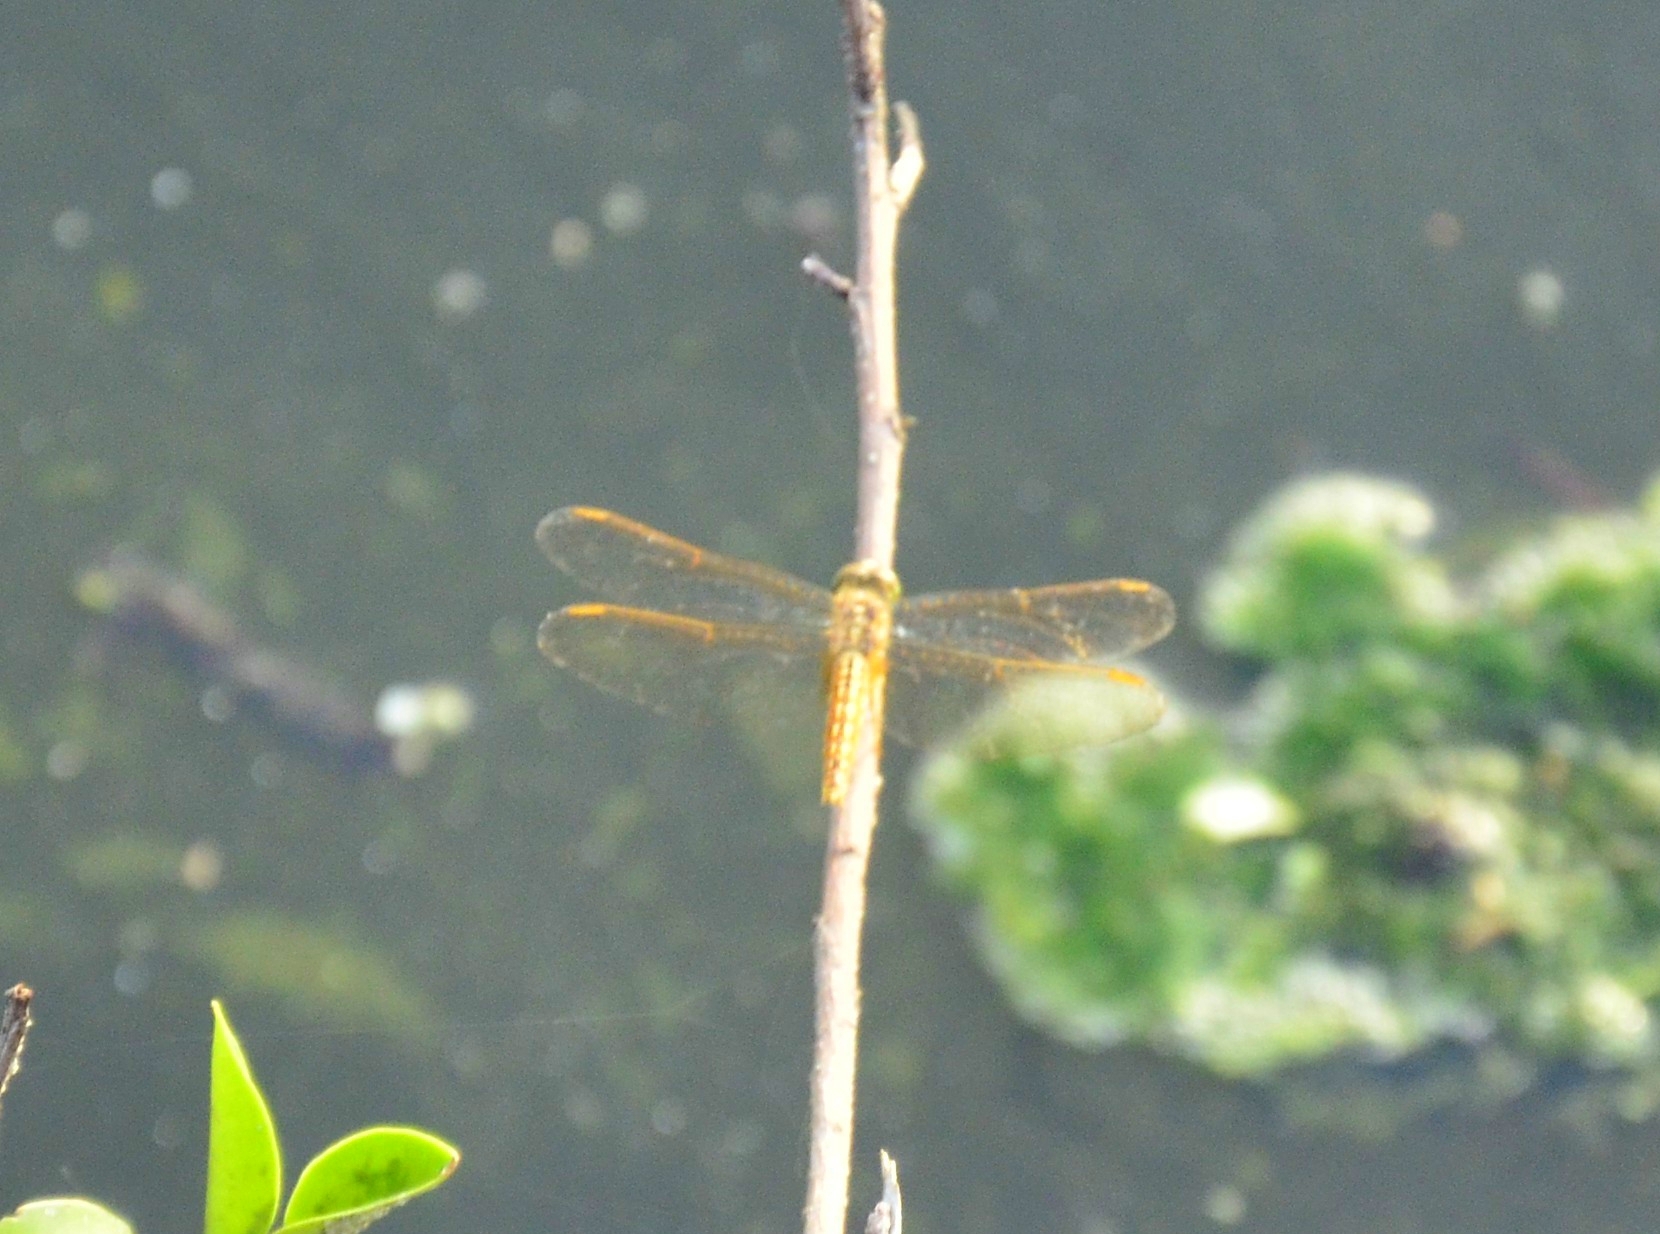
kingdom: Animalia
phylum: Arthropoda
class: Insecta
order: Odonata
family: Libellulidae
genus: Brachythemis
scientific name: Brachythemis contaminata
